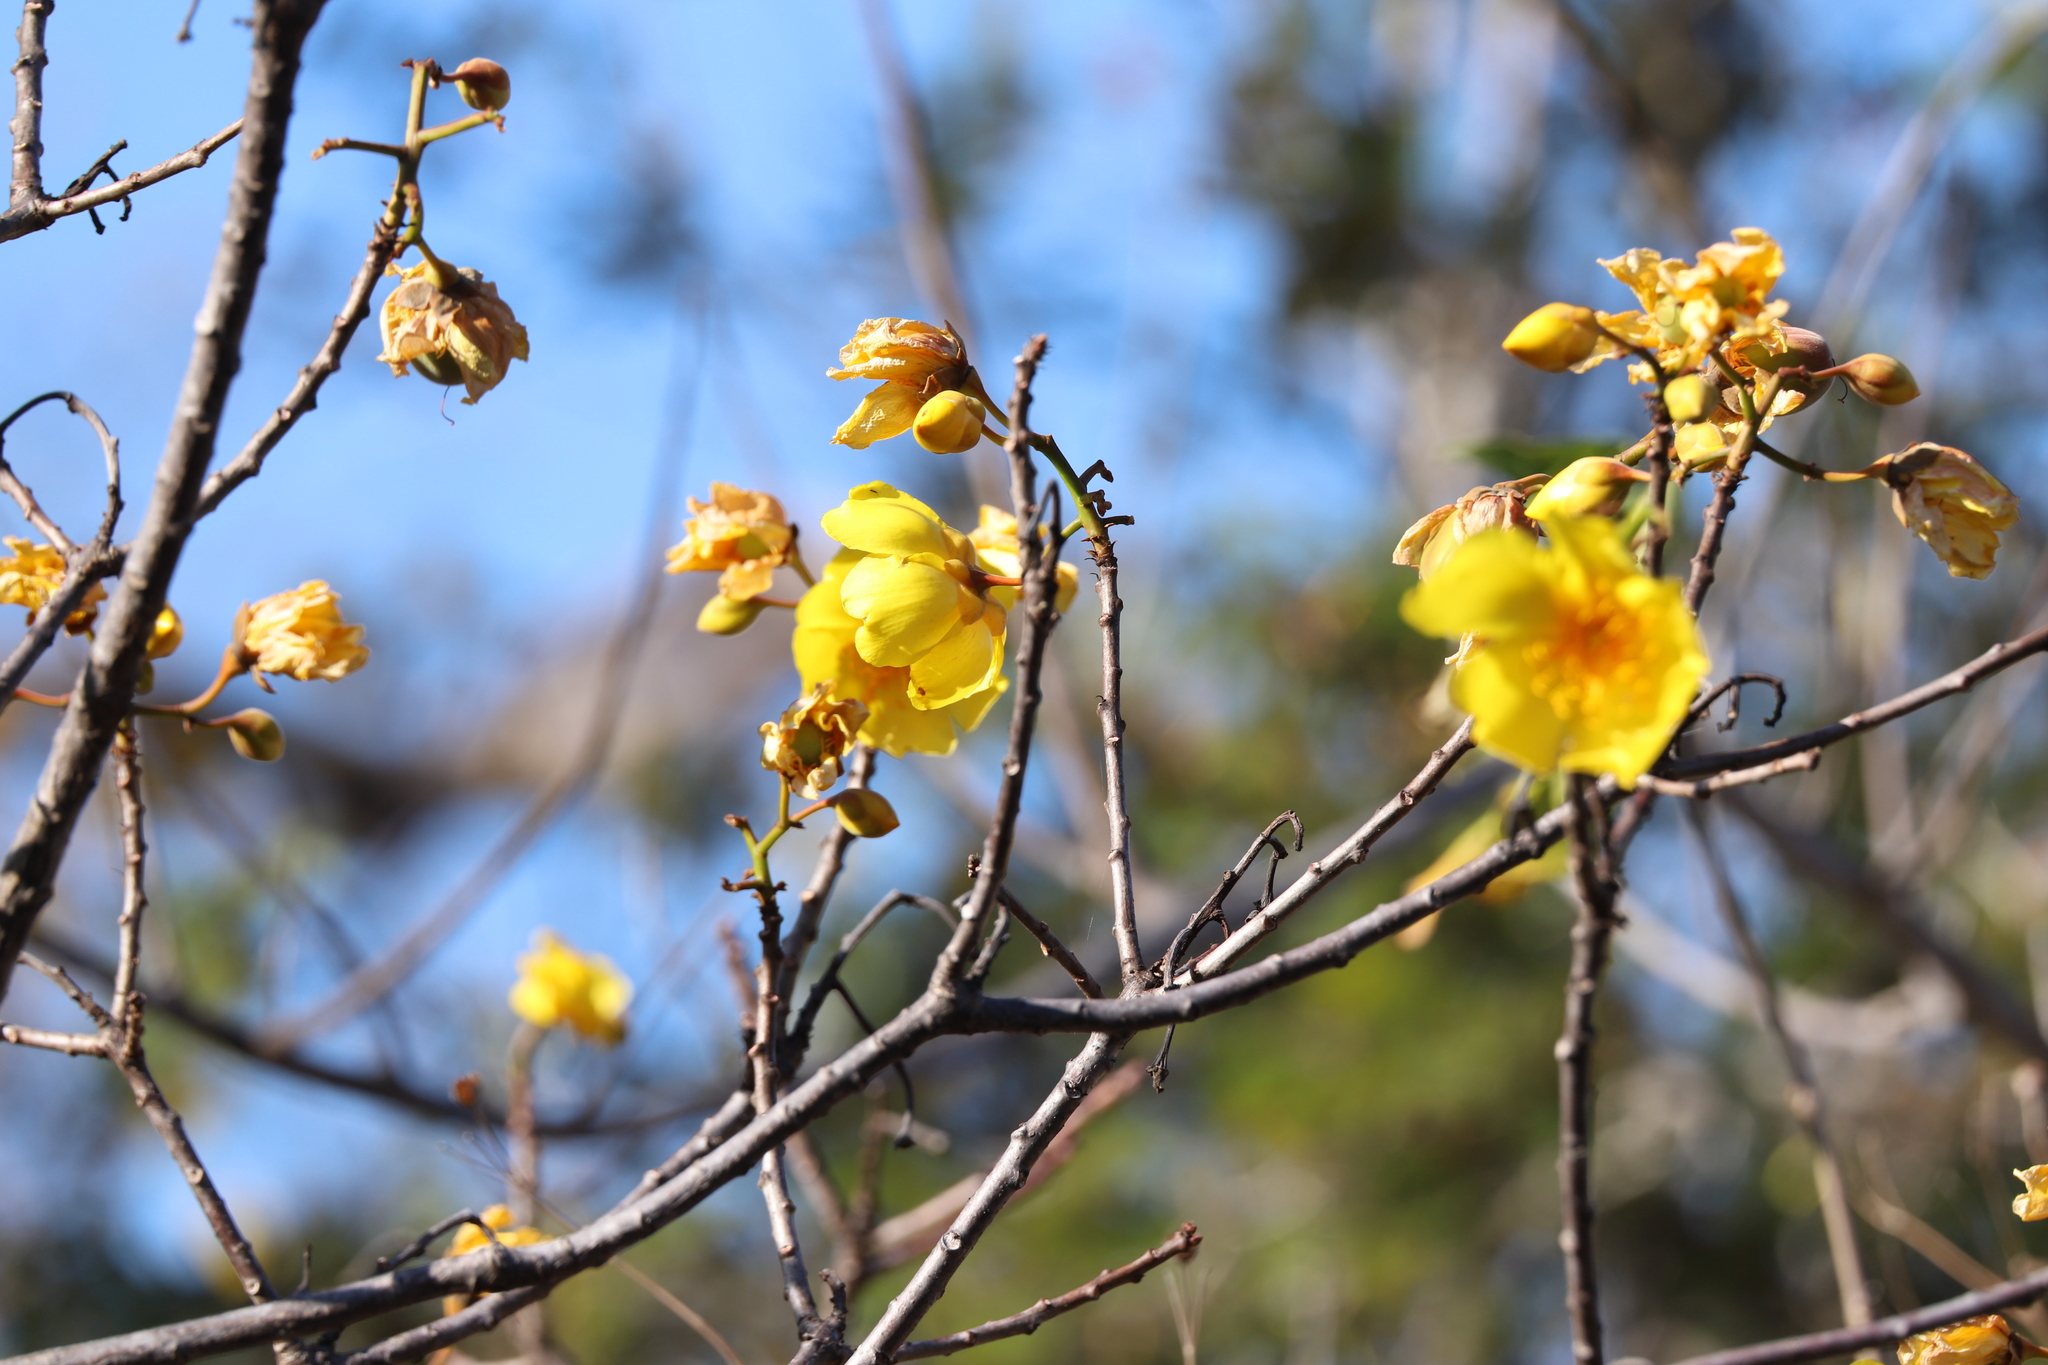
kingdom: Plantae
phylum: Tracheophyta
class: Magnoliopsida
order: Malvales
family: Cochlospermaceae
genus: Cochlospermum
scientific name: Cochlospermum vitifolium
